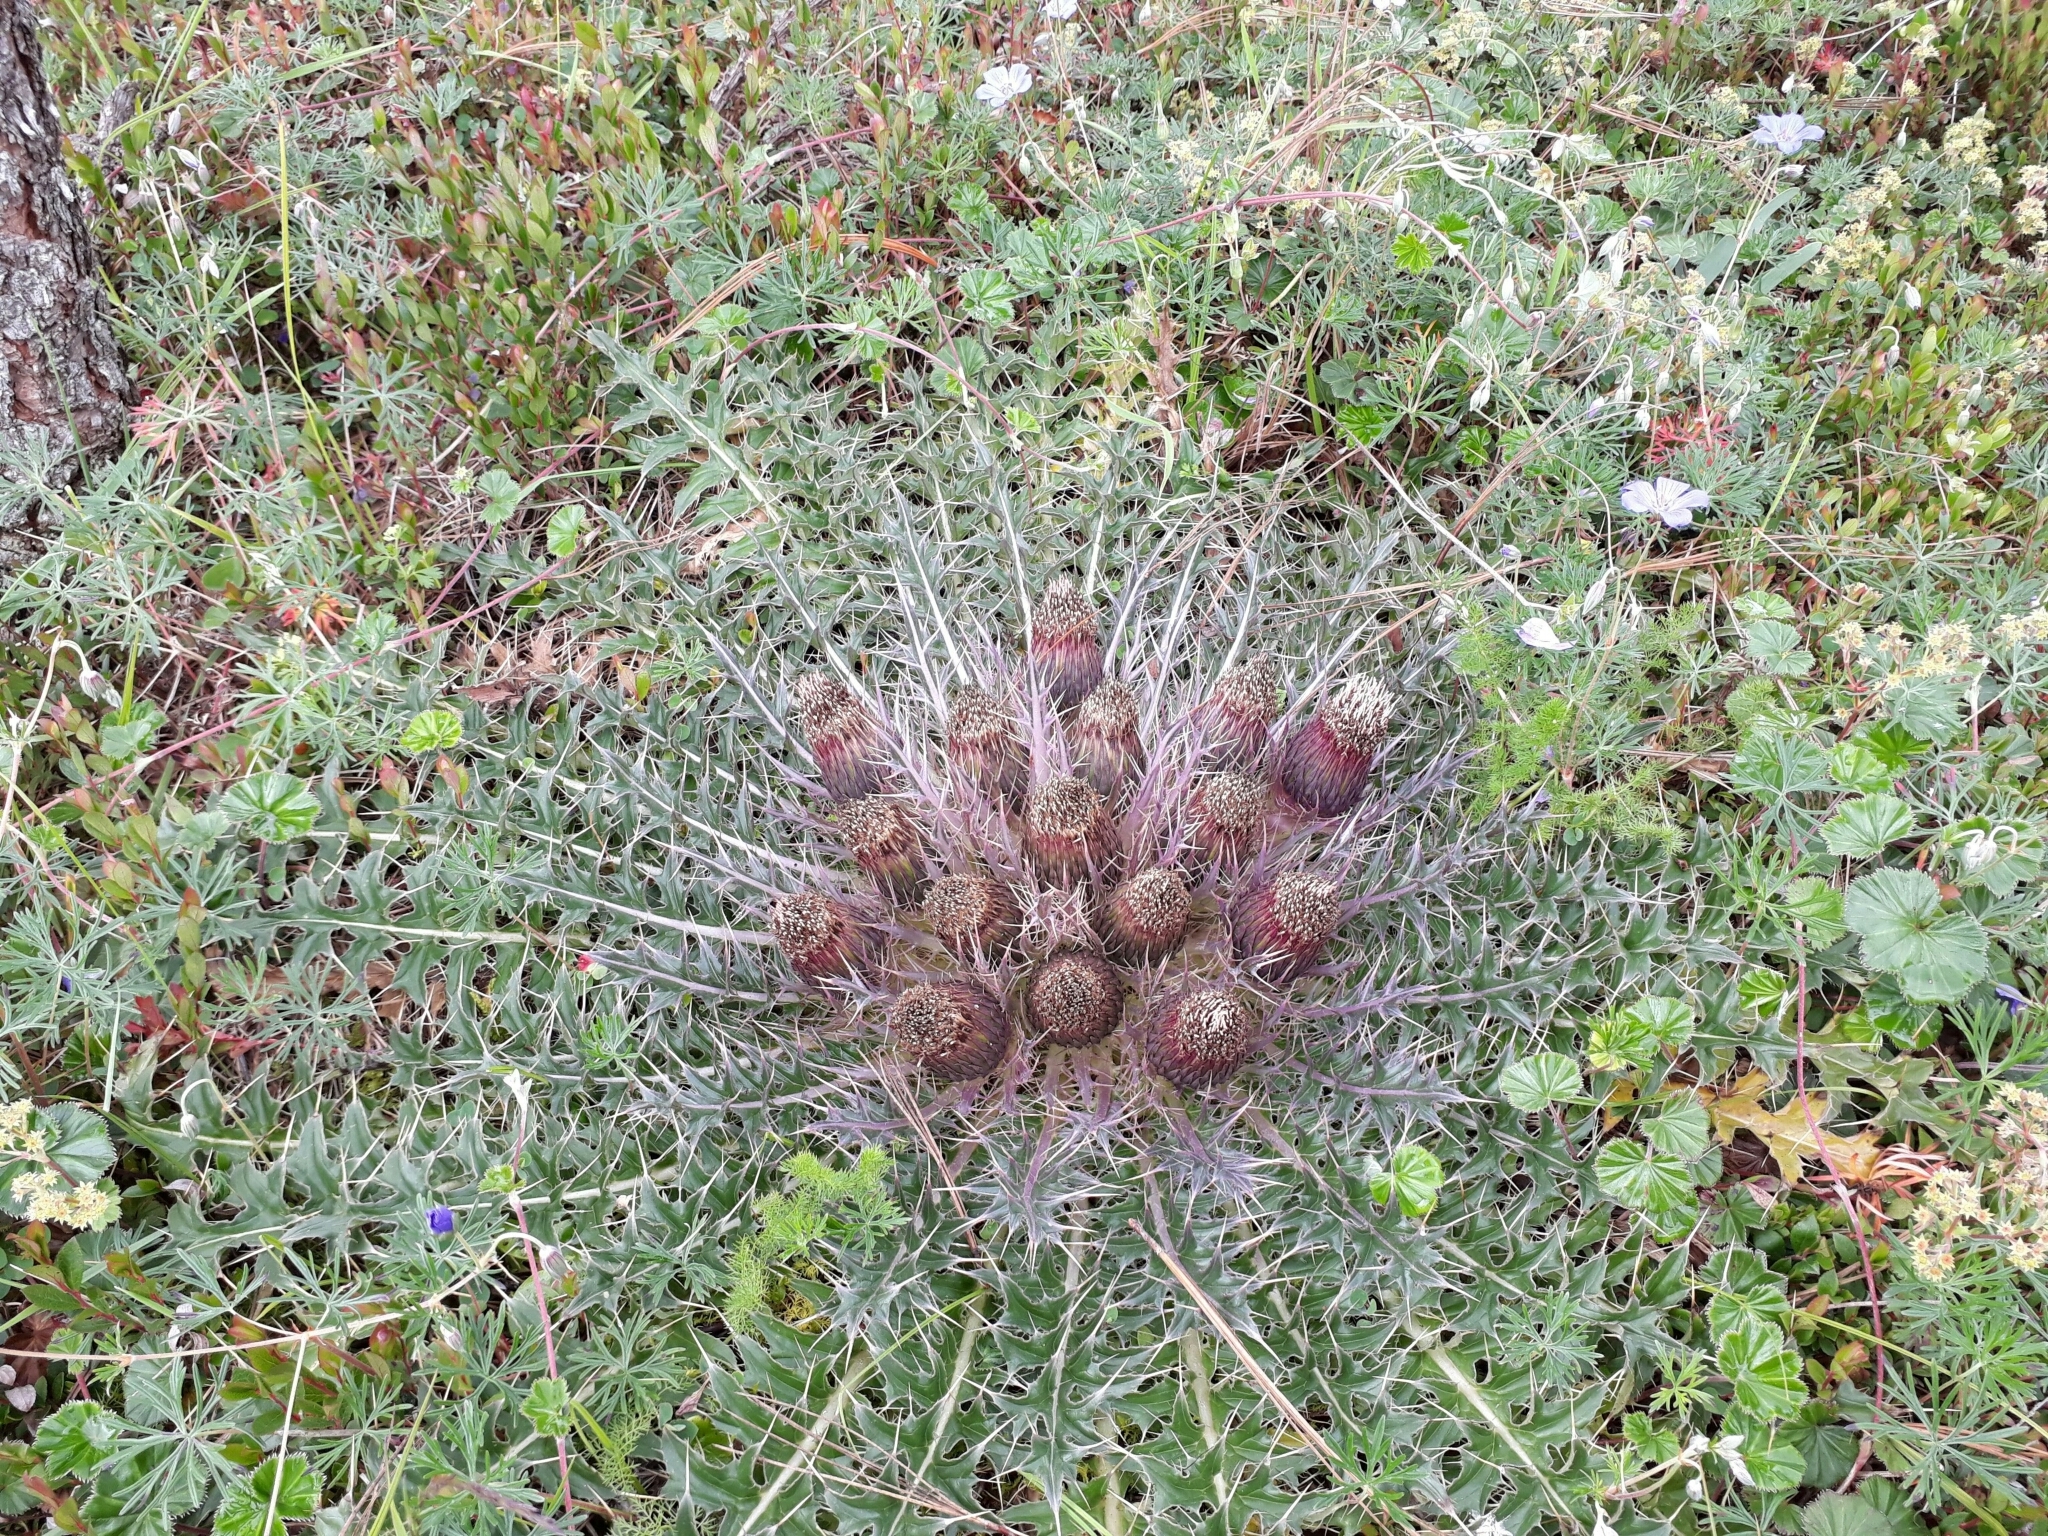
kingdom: Plantae
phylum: Tracheophyta
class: Magnoliopsida
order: Asterales
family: Asteraceae
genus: Cirsium
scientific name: Cirsium skutchii
